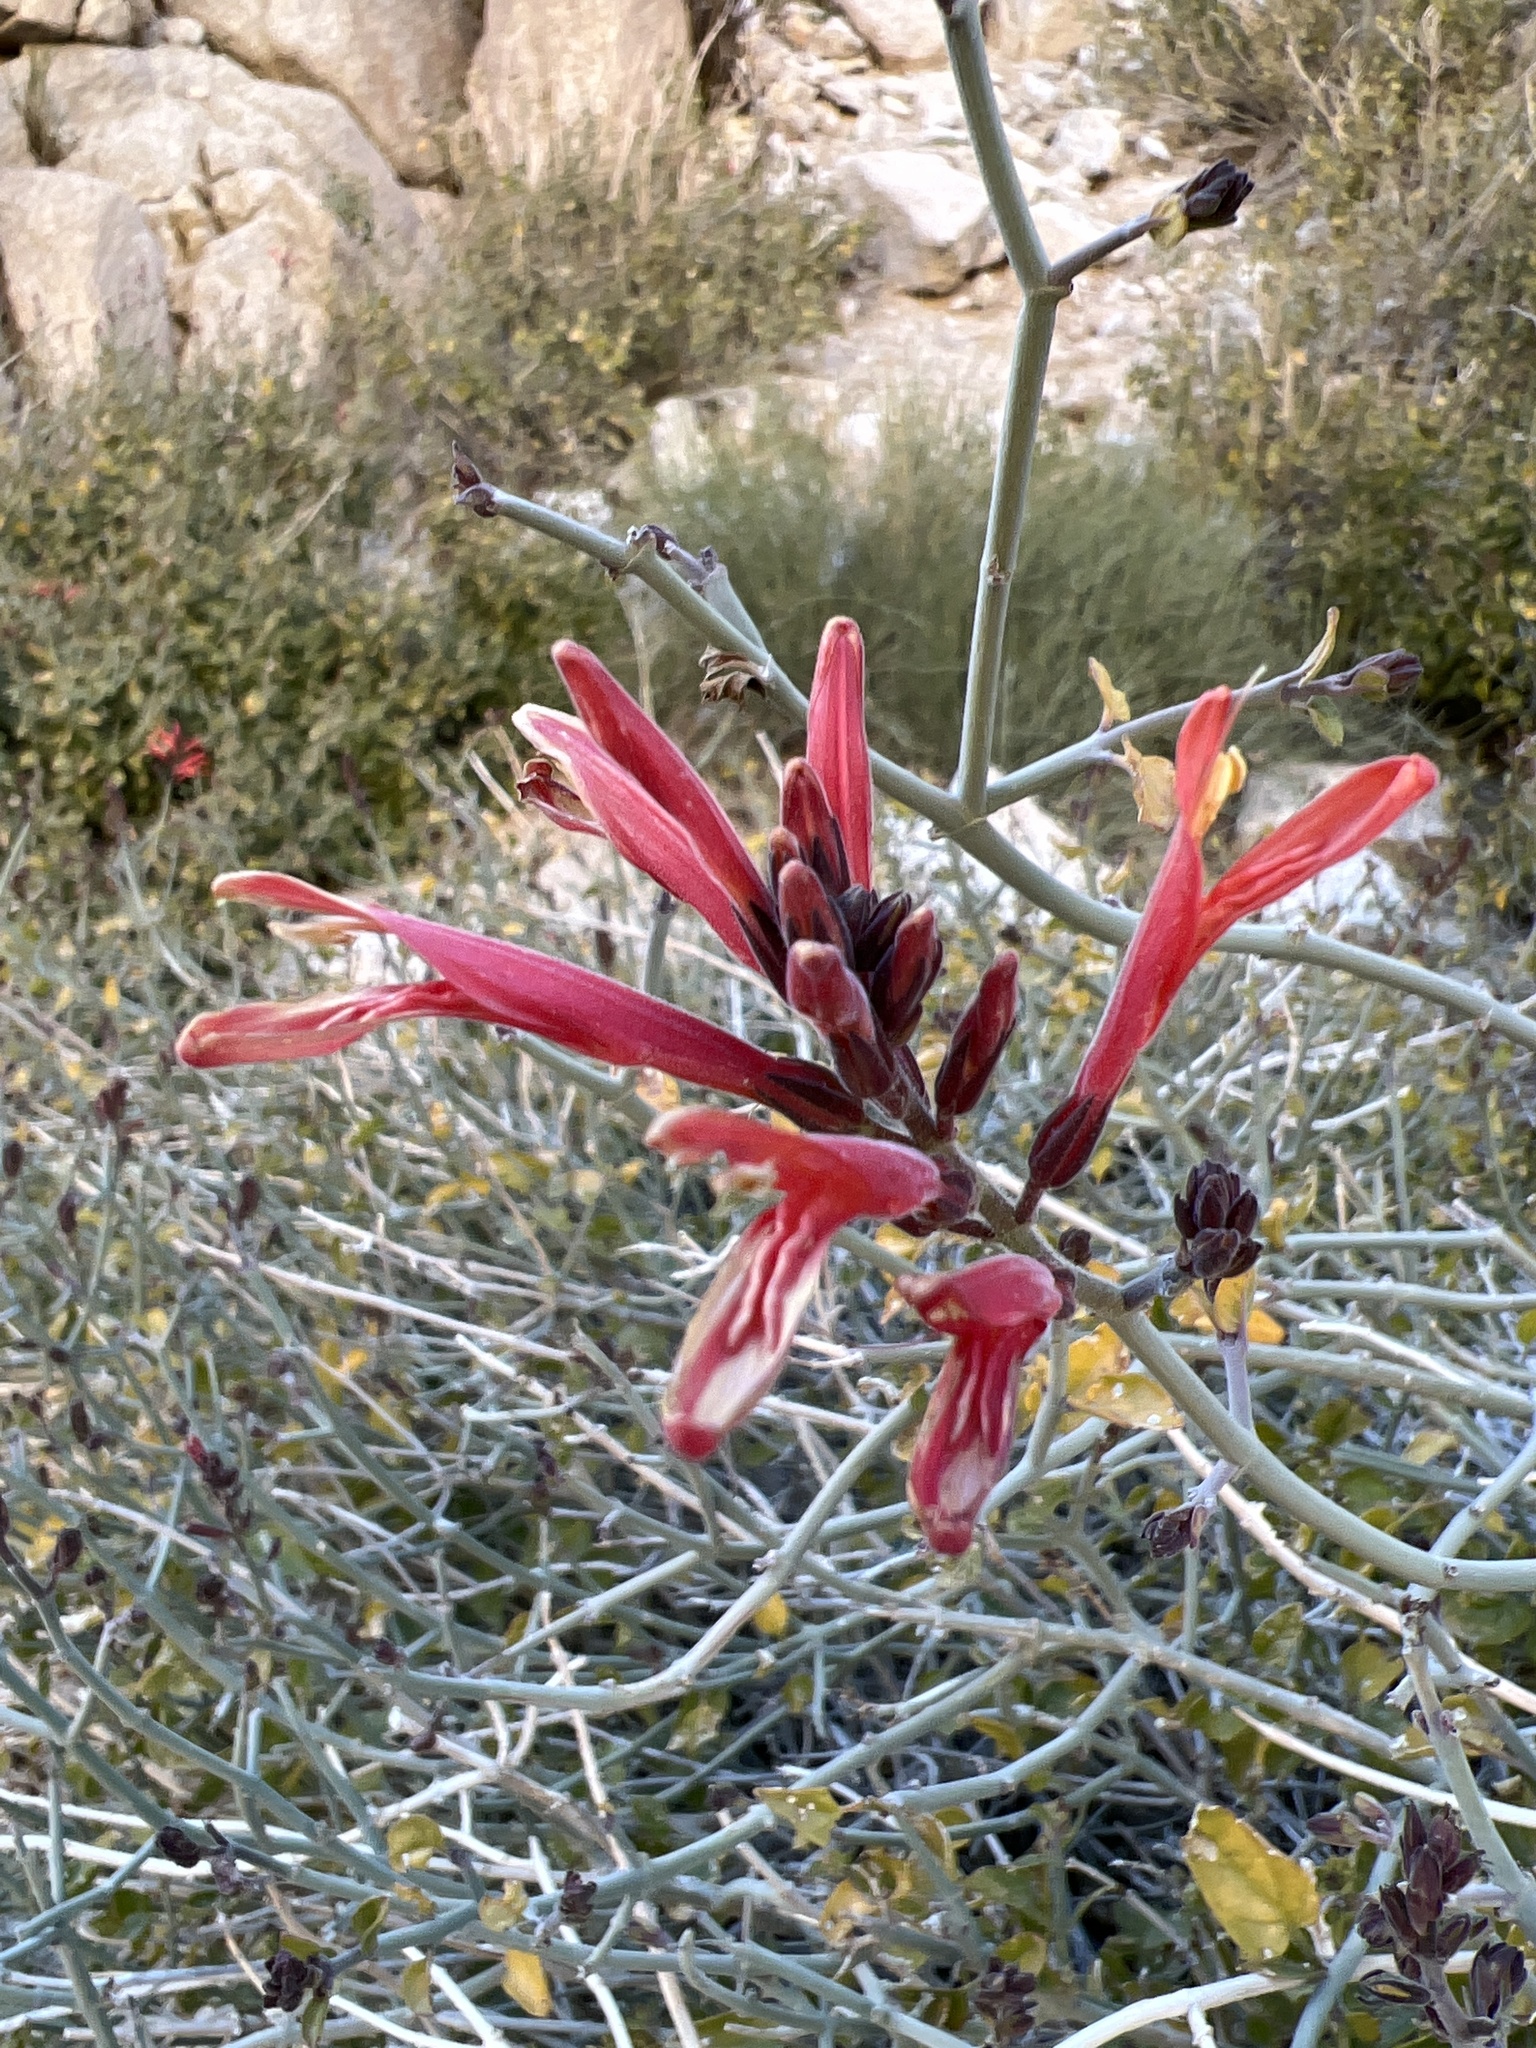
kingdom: Plantae
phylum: Tracheophyta
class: Magnoliopsida
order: Lamiales
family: Acanthaceae
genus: Justicia
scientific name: Justicia californica
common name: Chuparosa-honeysuckle
